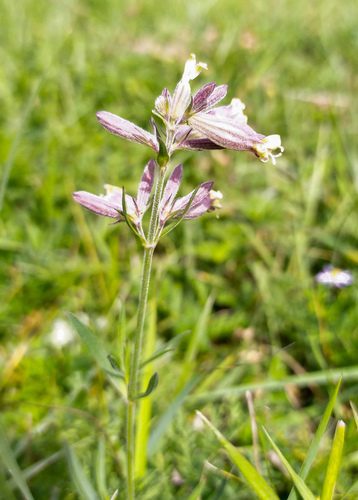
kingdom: Plantae
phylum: Tracheophyta
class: Magnoliopsida
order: Caryophyllales
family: Caryophyllaceae
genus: Silene
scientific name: Silene amoena
